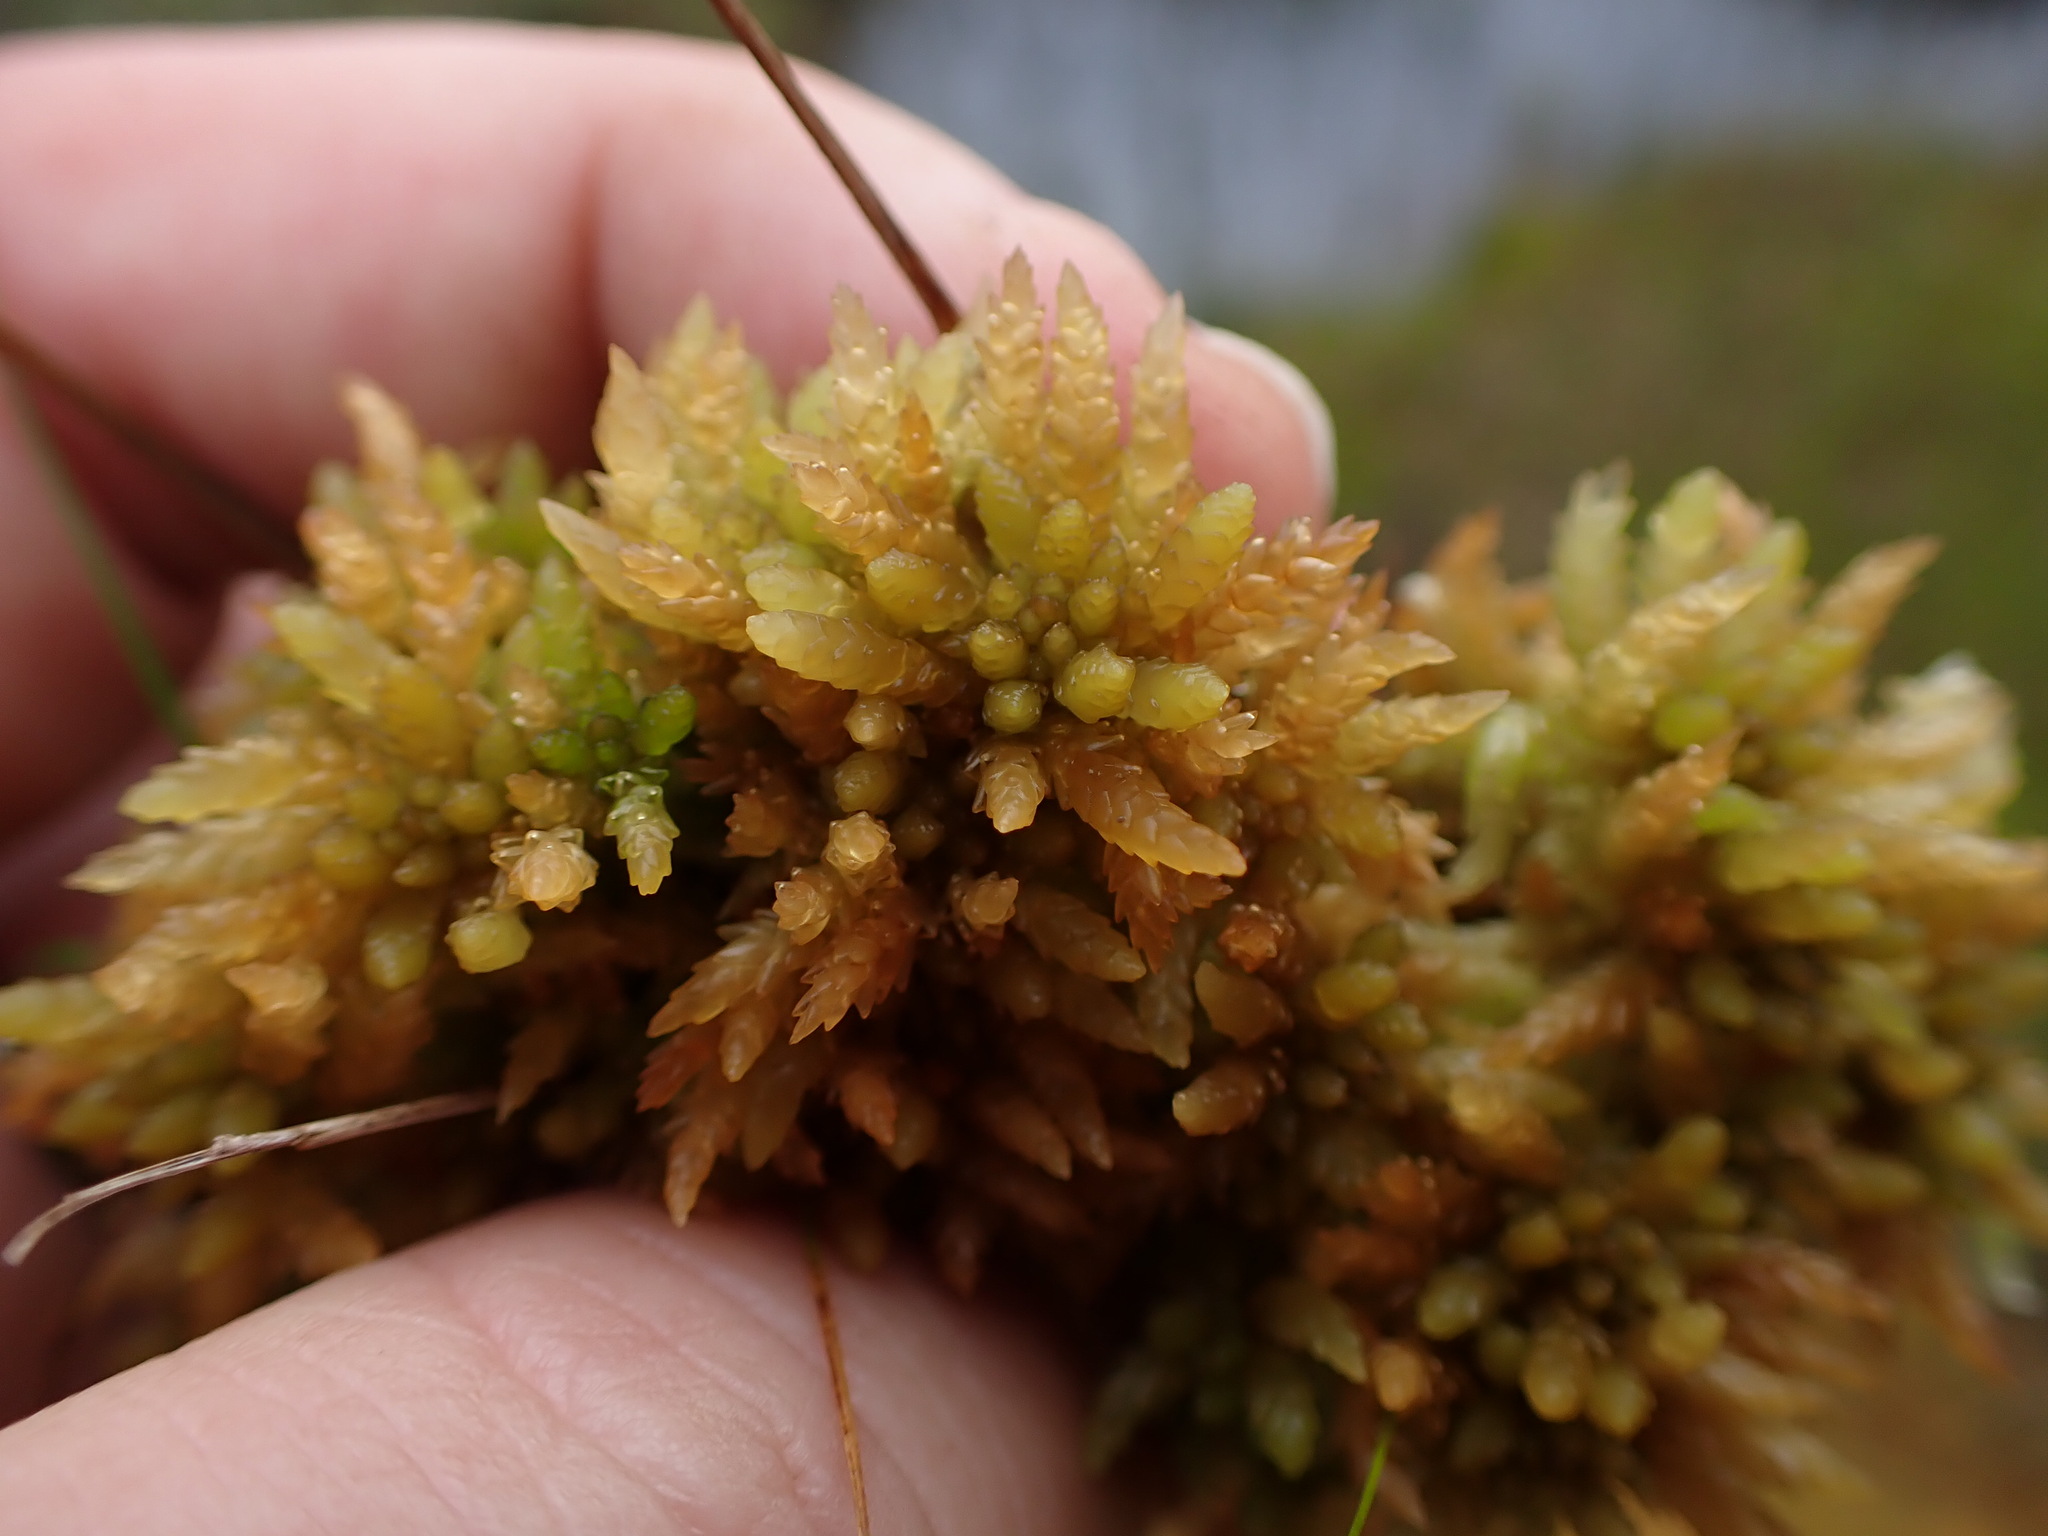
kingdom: Plantae
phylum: Bryophyta
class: Sphagnopsida
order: Sphagnales
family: Sphagnaceae
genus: Sphagnum
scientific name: Sphagnum austinii
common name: Austin's peat moss
